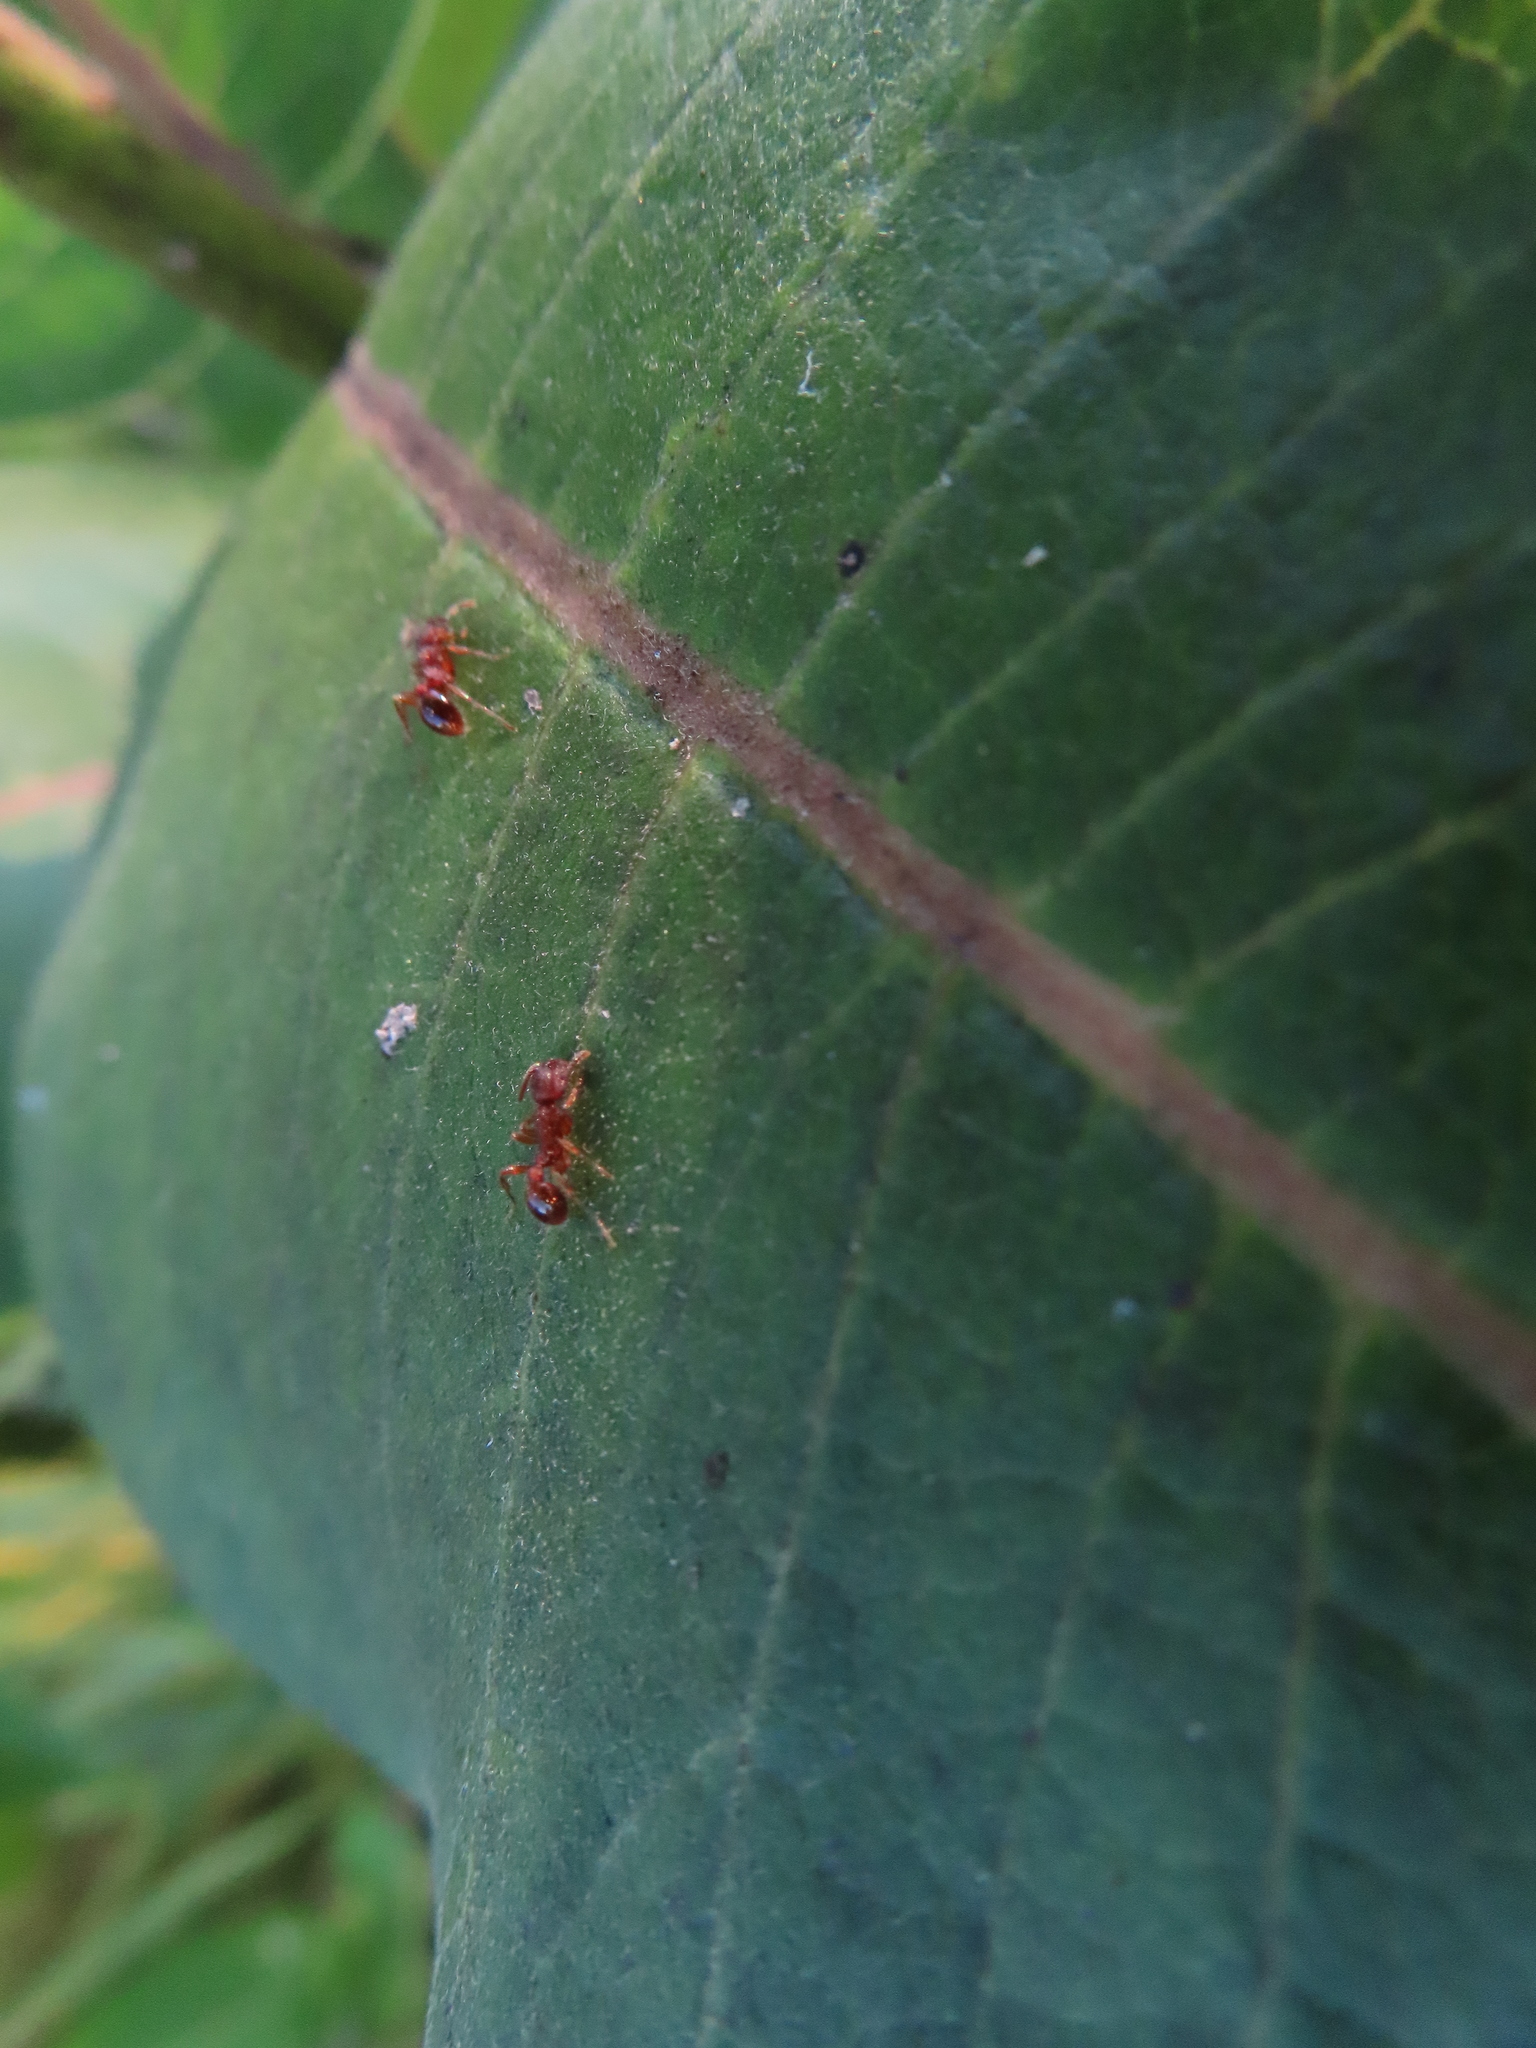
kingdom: Animalia
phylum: Arthropoda
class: Insecta
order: Hymenoptera
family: Formicidae
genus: Myrmica
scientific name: Myrmica
